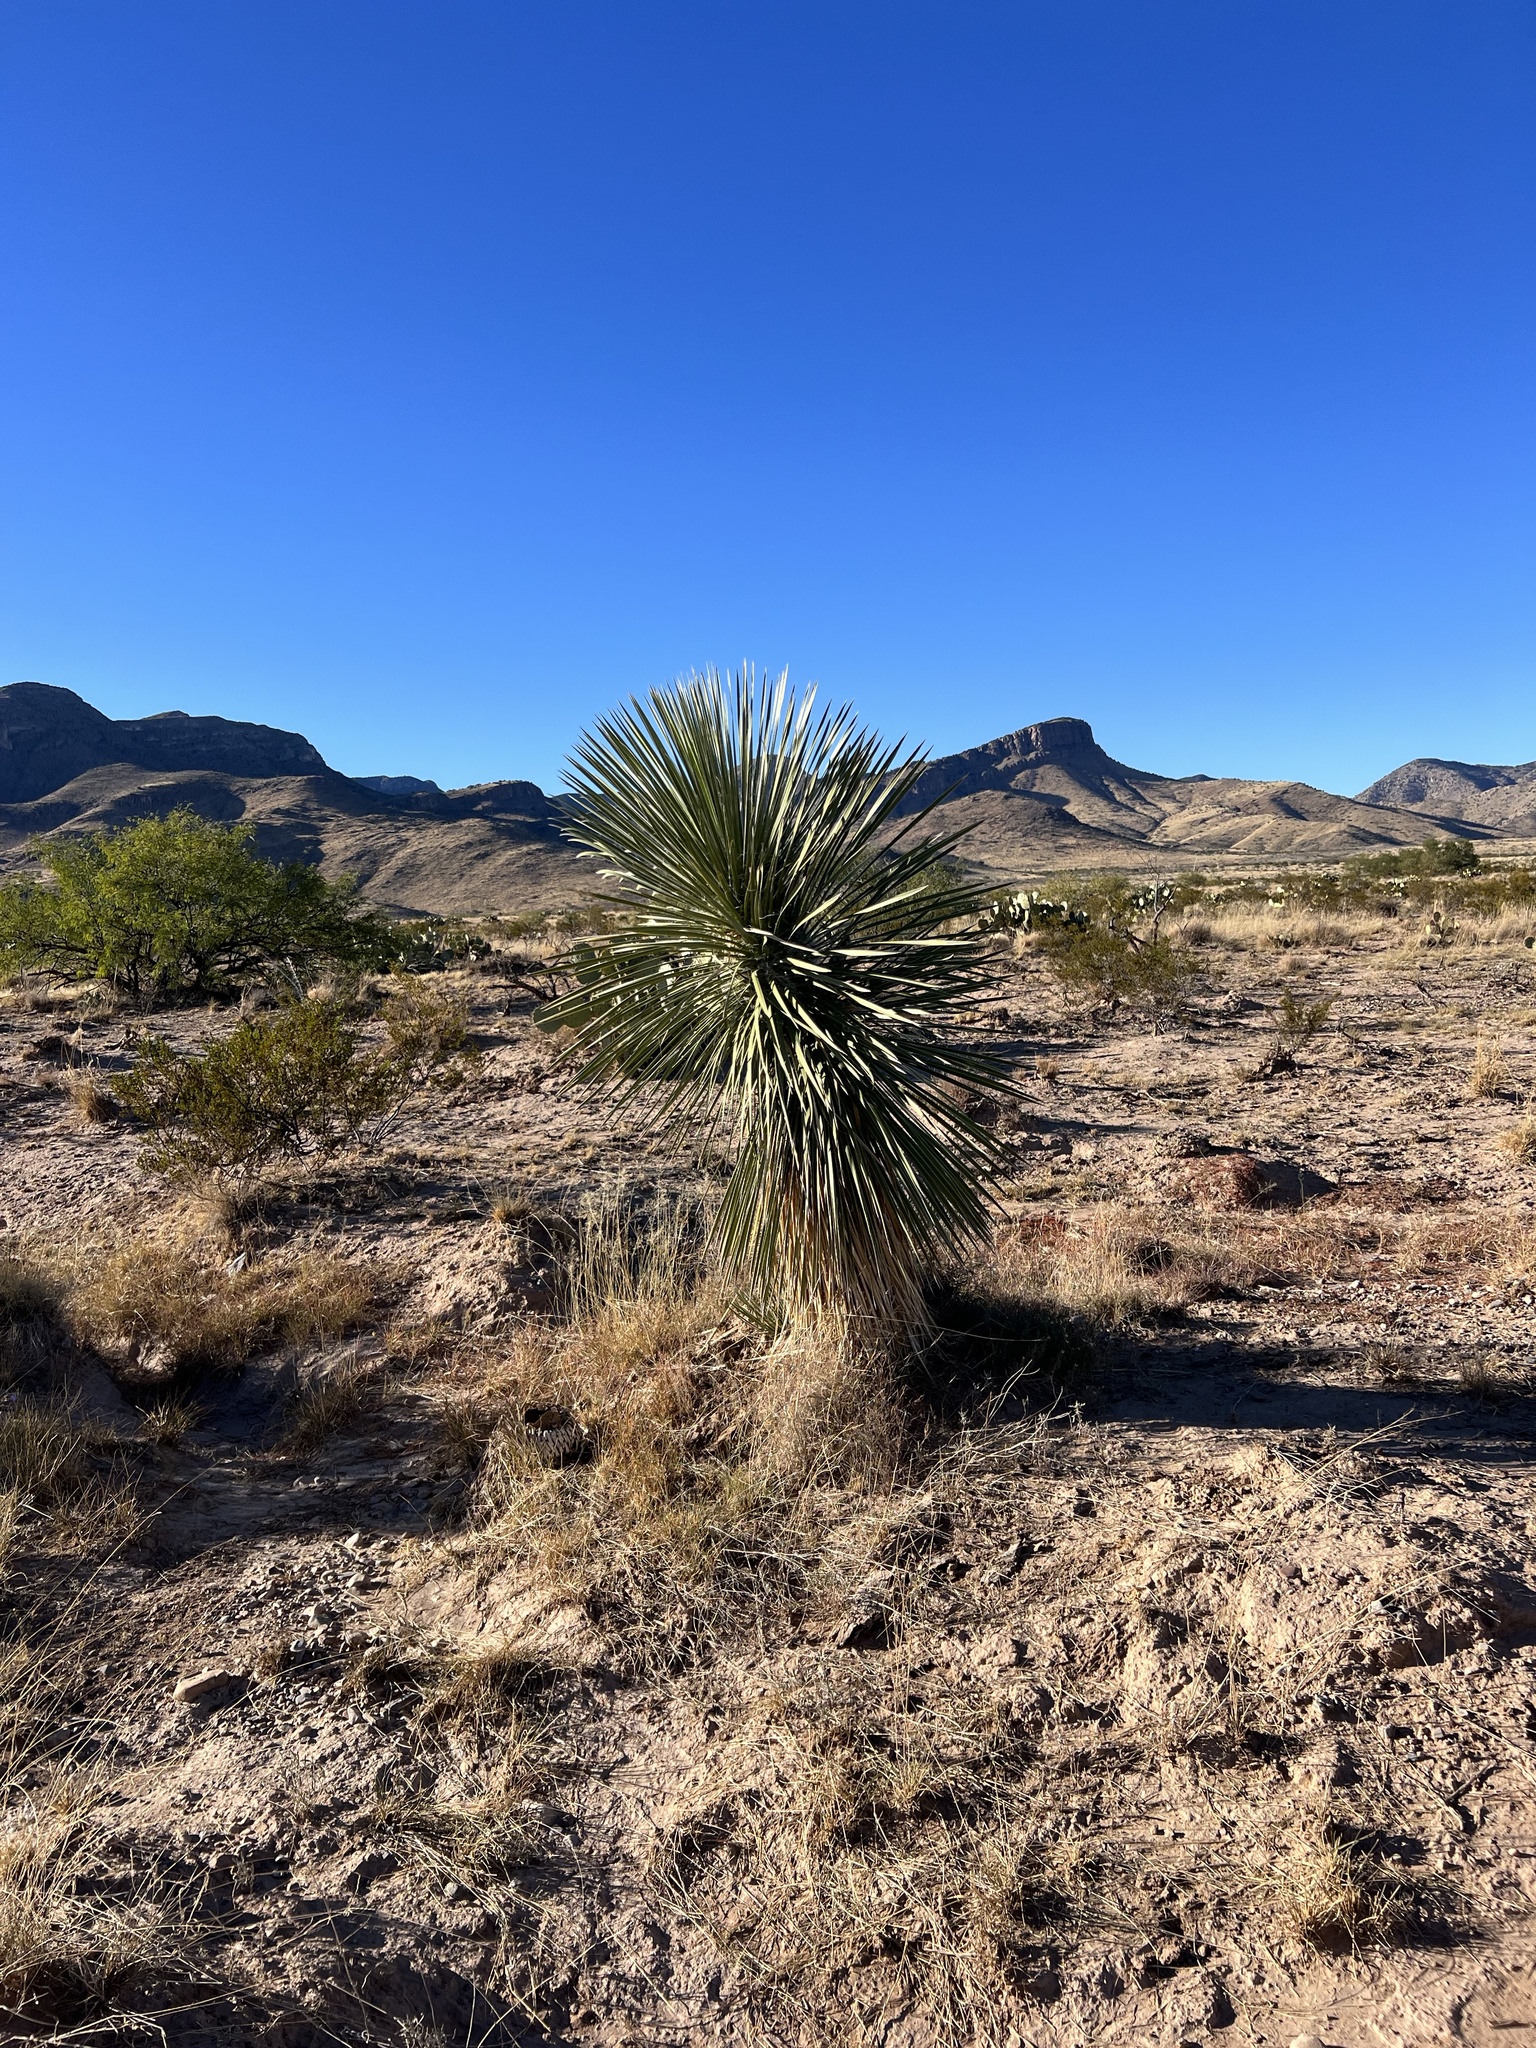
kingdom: Plantae
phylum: Tracheophyta
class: Liliopsida
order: Asparagales
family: Asparagaceae
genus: Yucca
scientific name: Yucca elata
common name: Palmella
